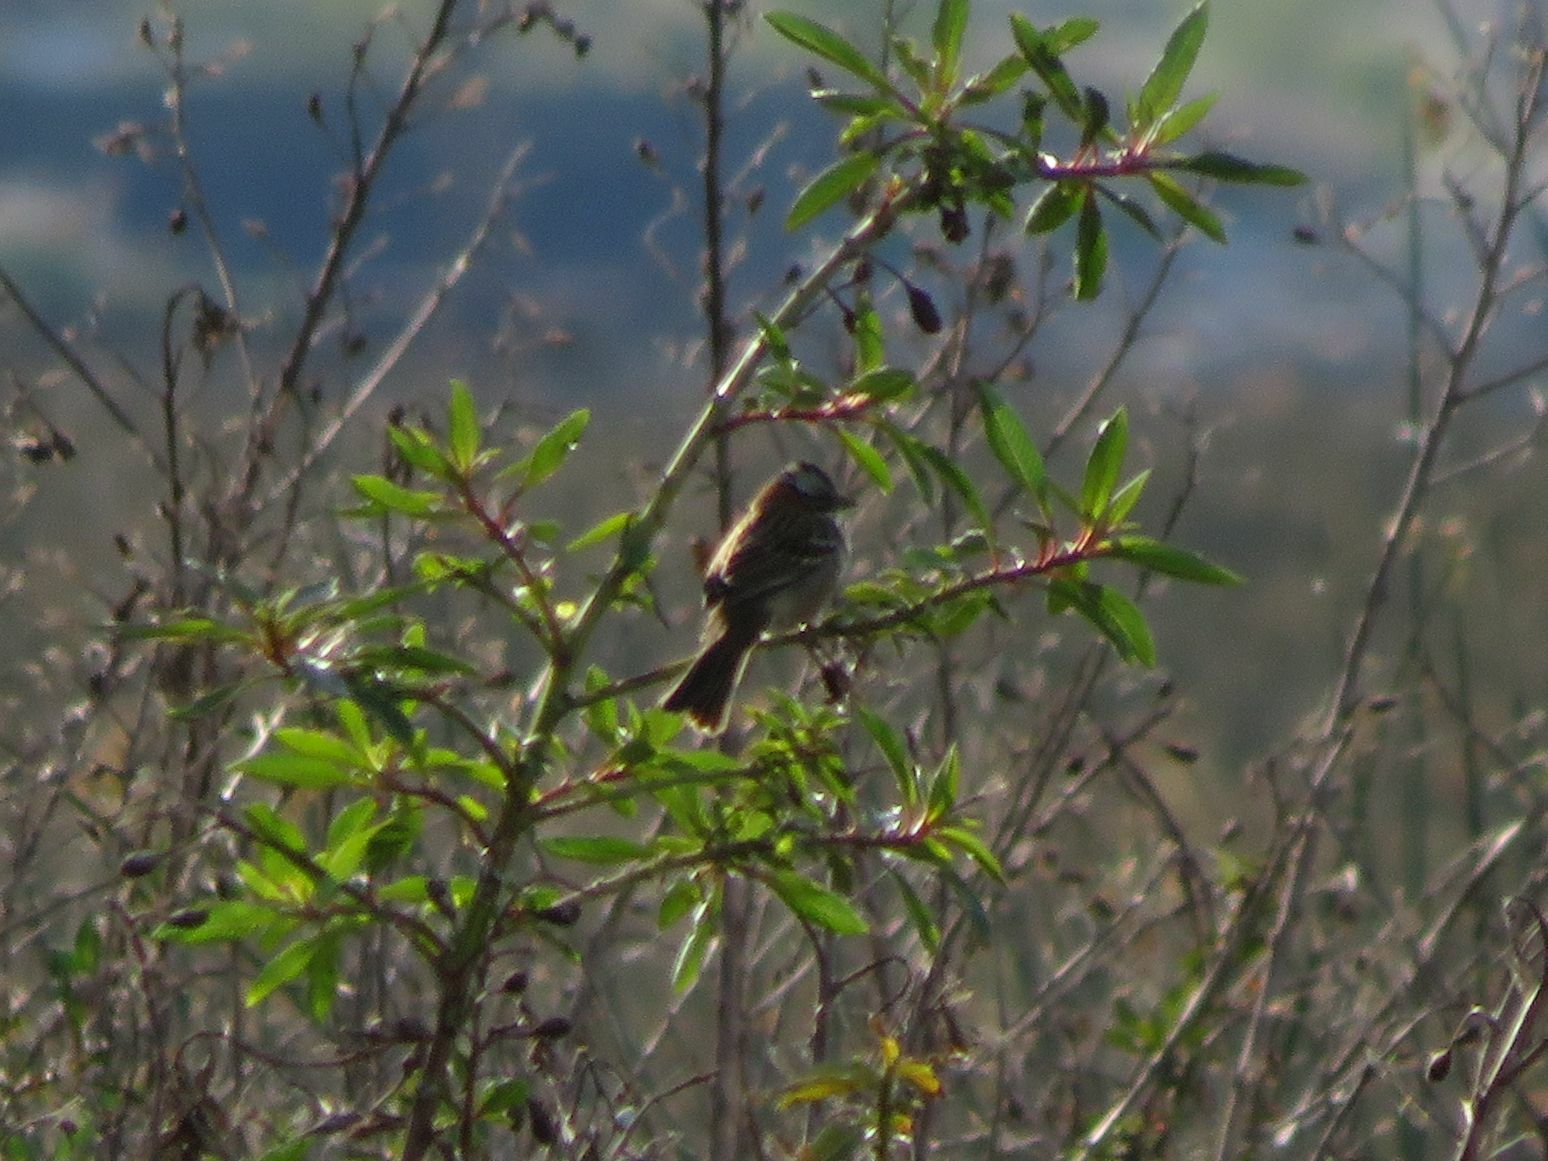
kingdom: Animalia
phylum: Chordata
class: Aves
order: Passeriformes
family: Passerellidae
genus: Zonotrichia
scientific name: Zonotrichia capensis
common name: Rufous-collared sparrow
